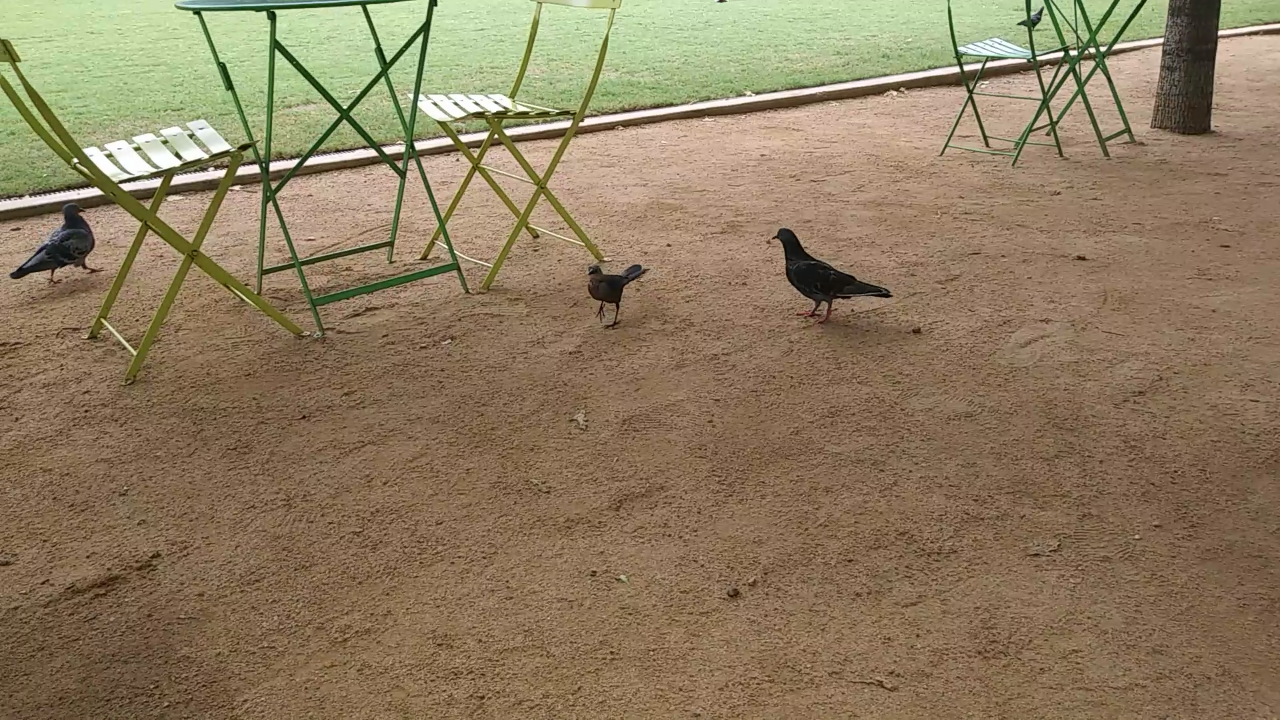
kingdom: Animalia
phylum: Chordata
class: Aves
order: Columbiformes
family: Columbidae
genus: Columba
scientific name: Columba livia
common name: Rock pigeon
